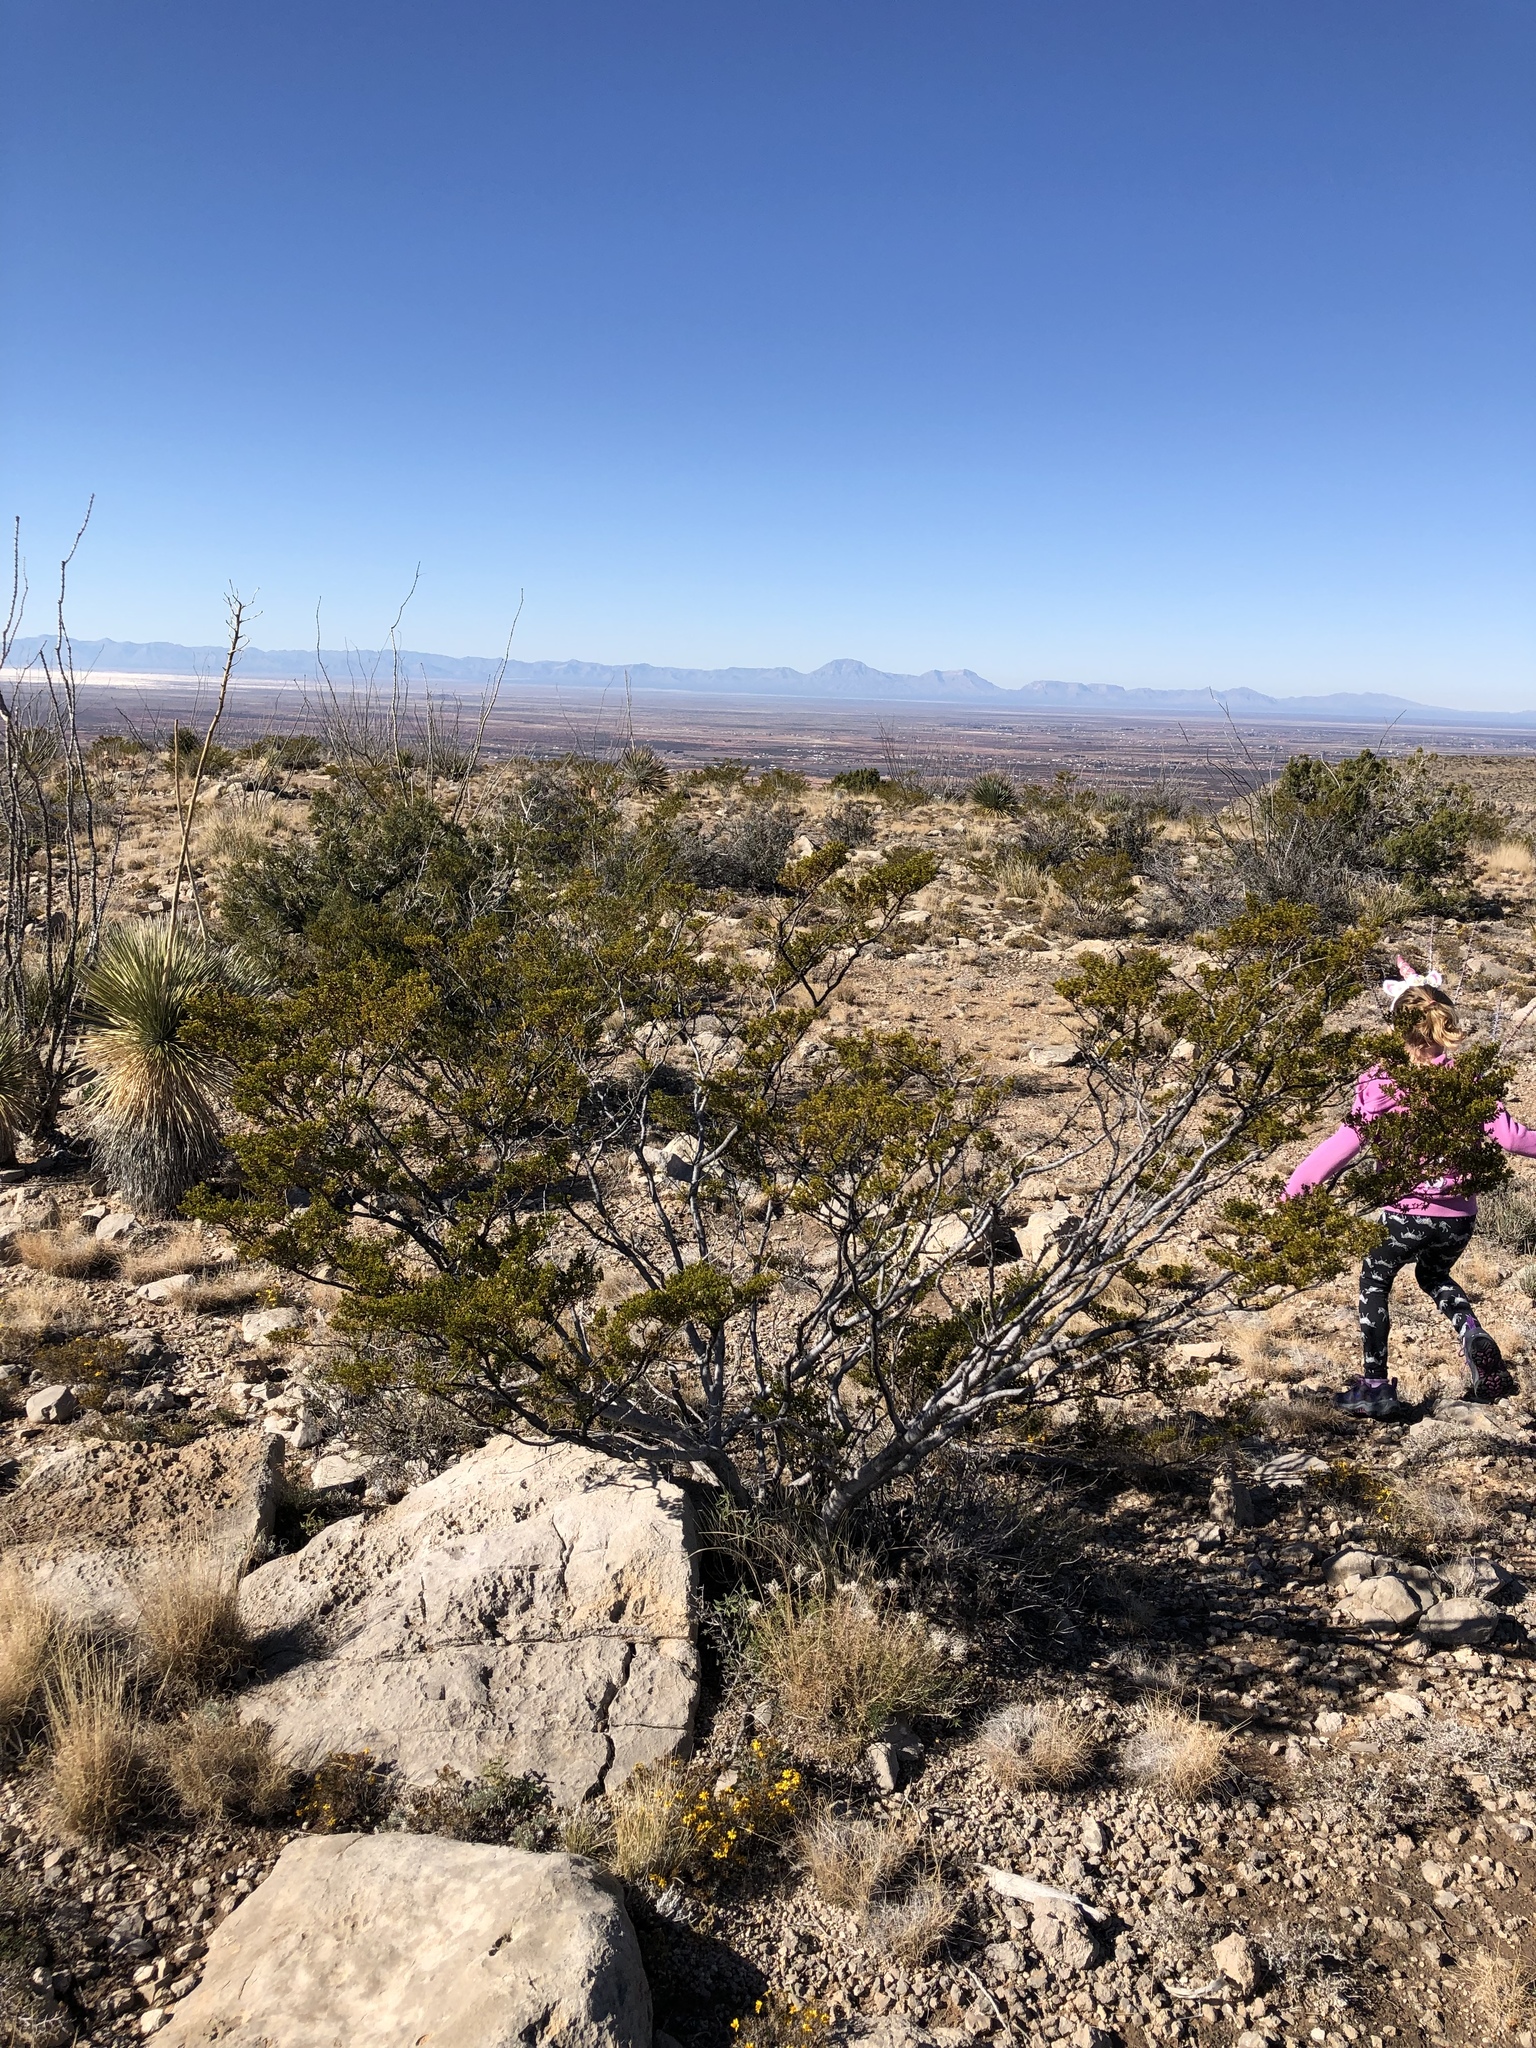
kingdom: Plantae
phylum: Tracheophyta
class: Magnoliopsida
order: Zygophyllales
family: Zygophyllaceae
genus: Larrea
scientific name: Larrea tridentata
